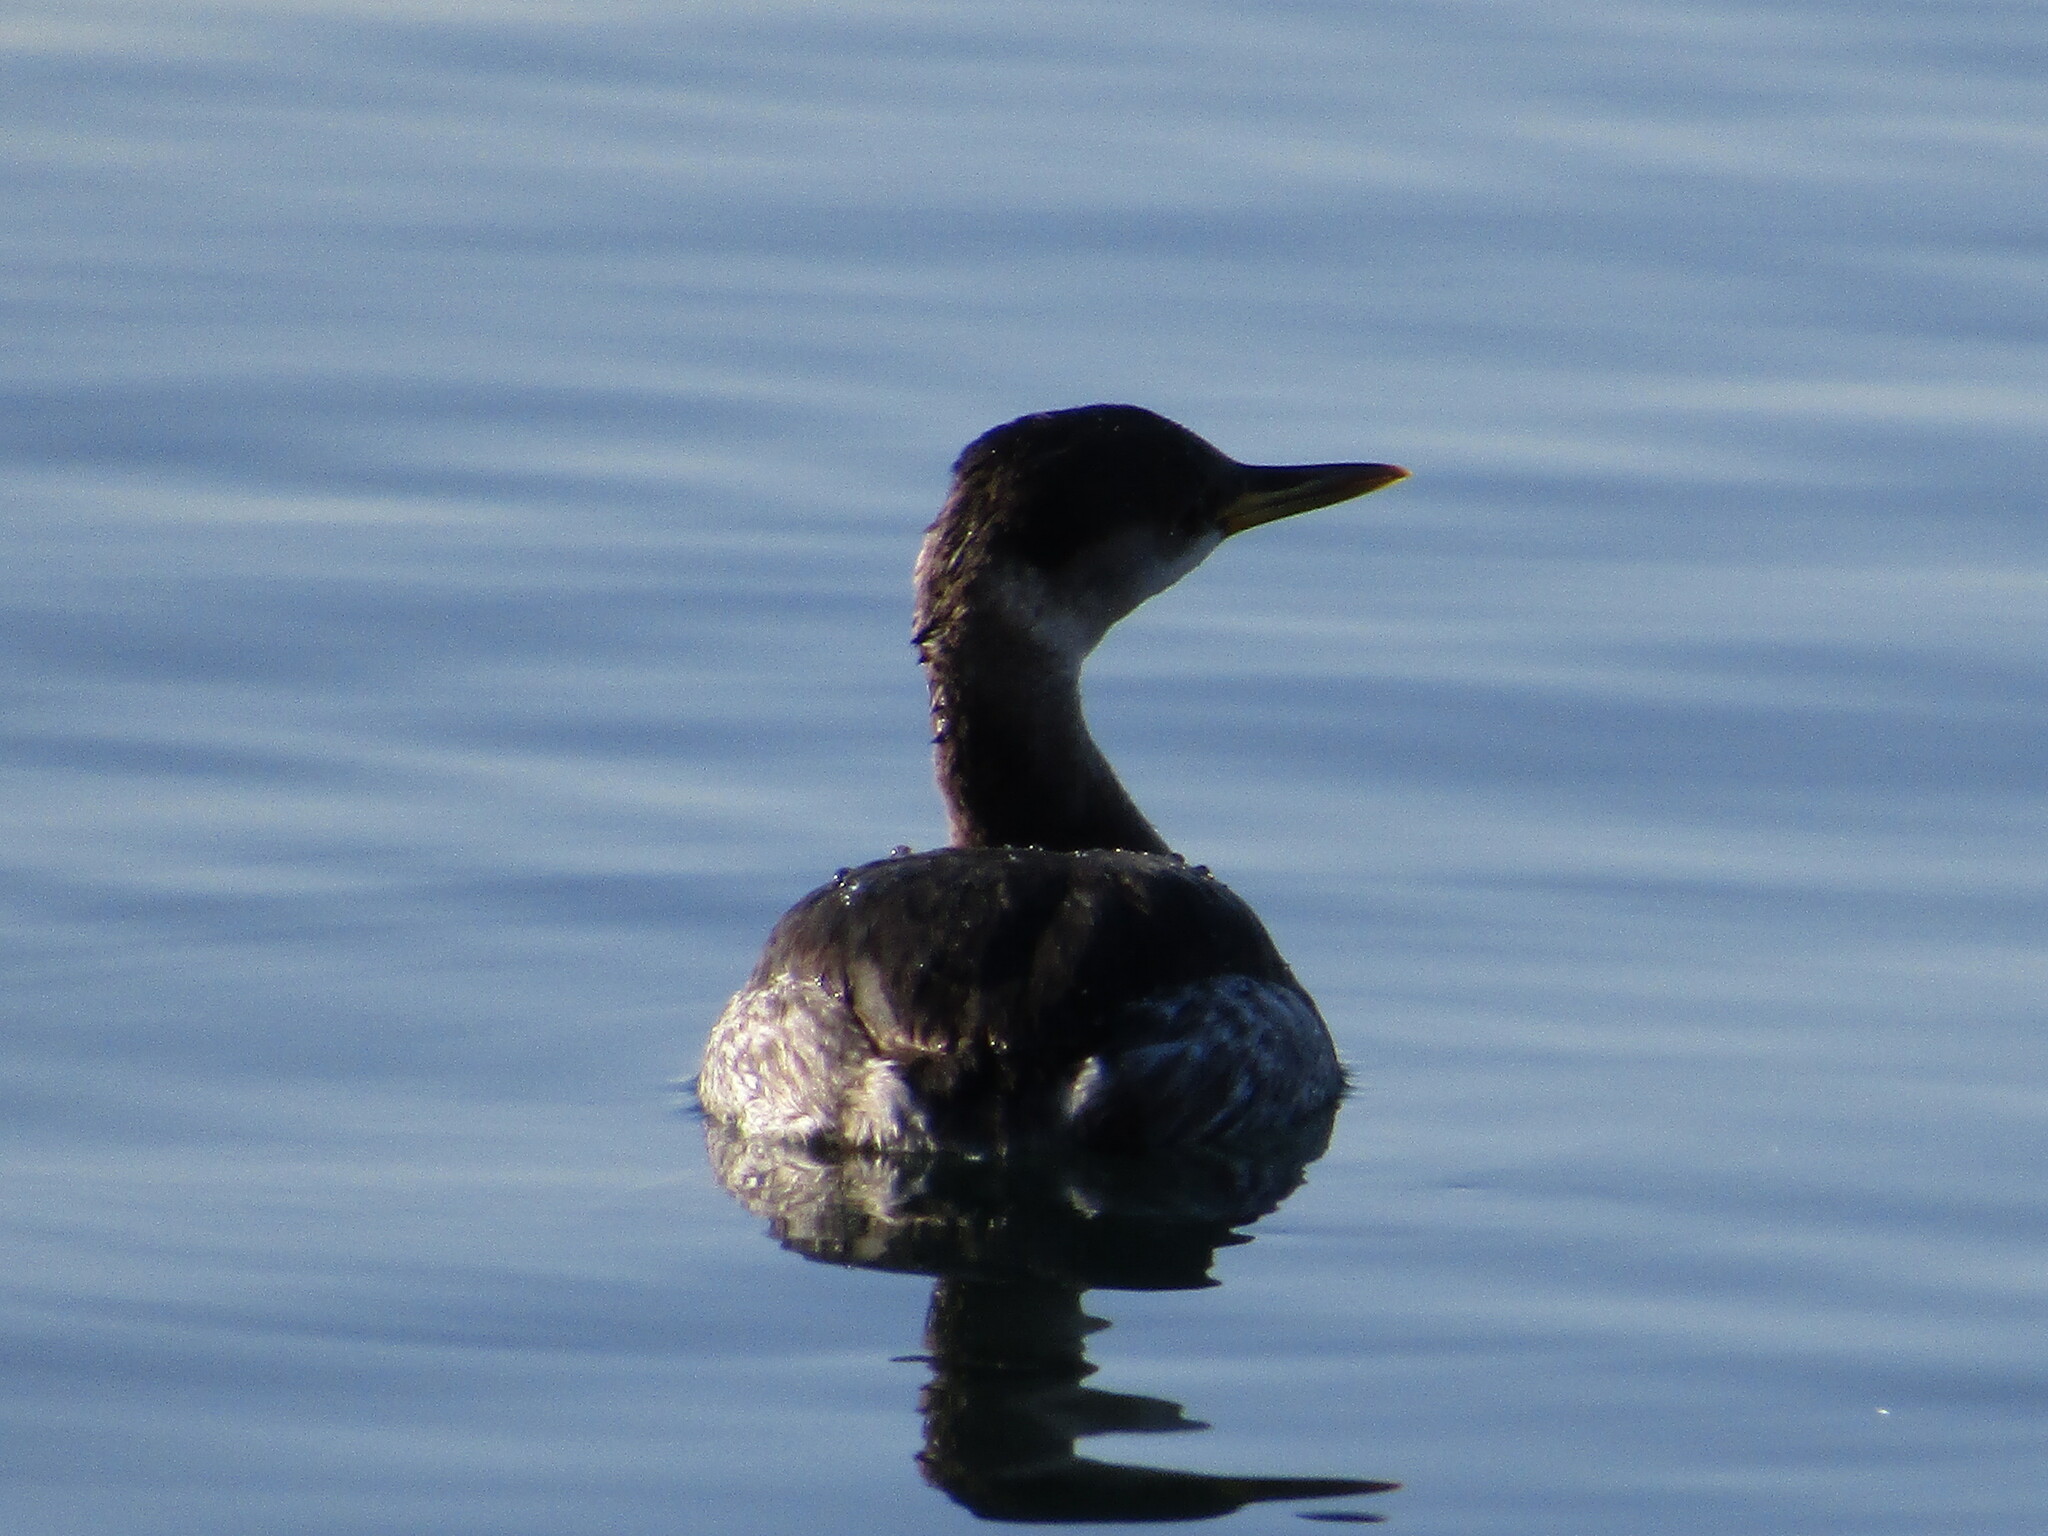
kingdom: Animalia
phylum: Chordata
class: Aves
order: Podicipediformes
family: Podicipedidae
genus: Podiceps
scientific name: Podiceps grisegena
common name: Red-necked grebe
